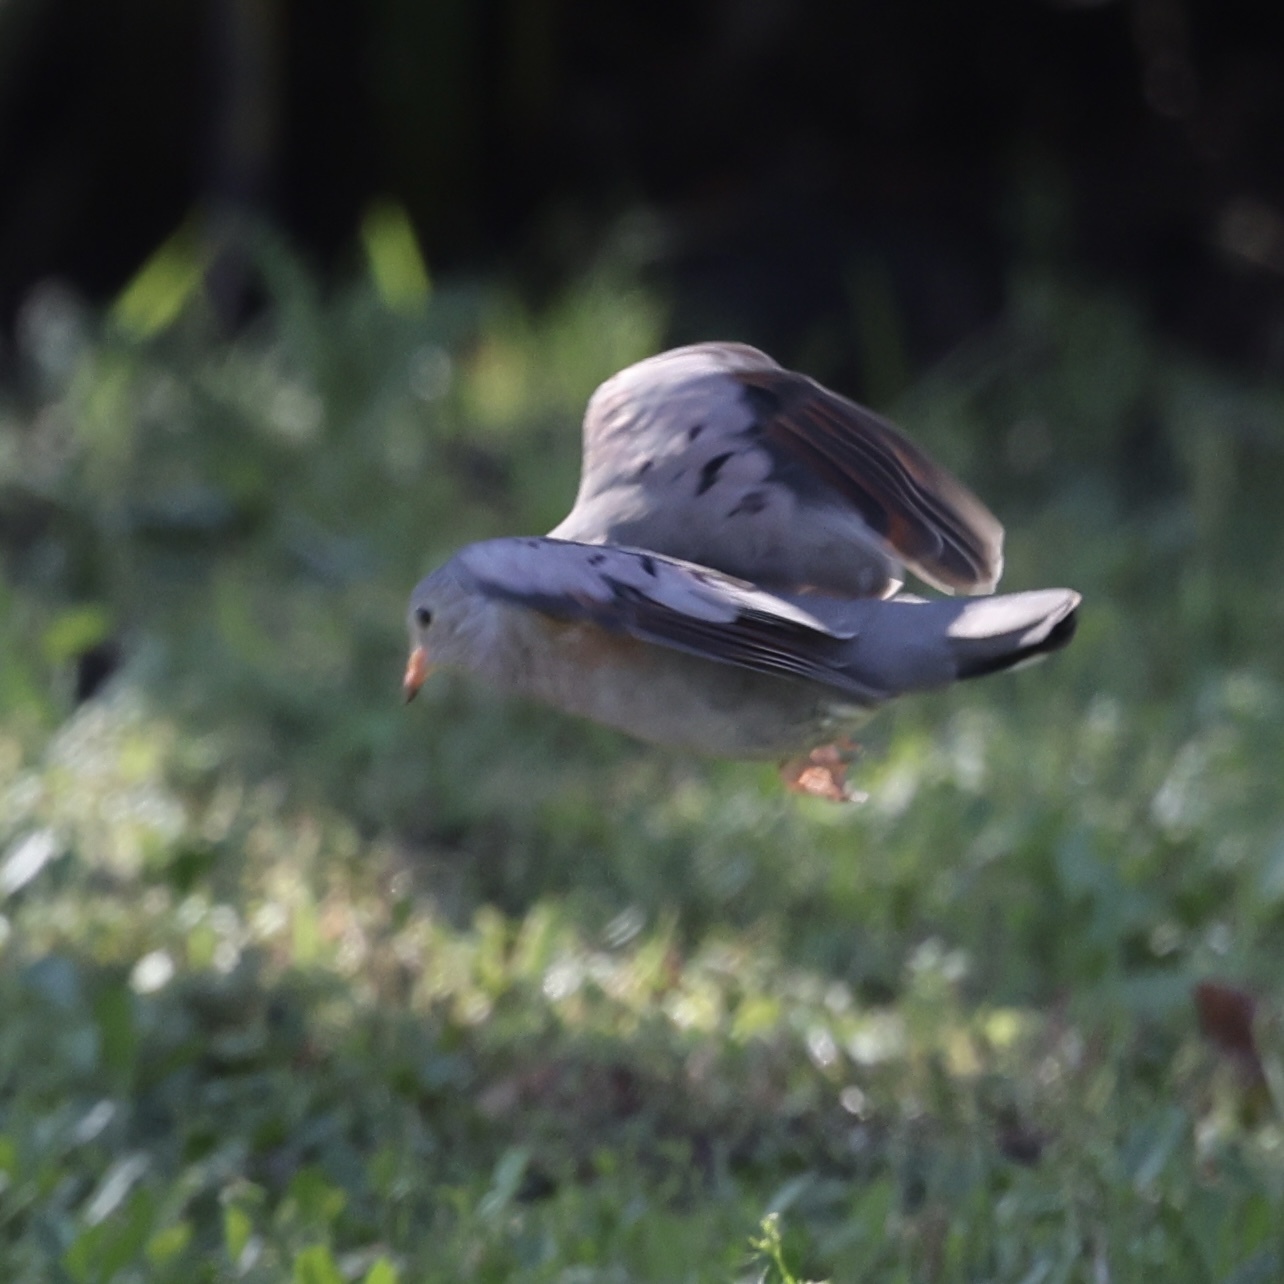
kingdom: Animalia
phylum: Chordata
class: Aves
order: Columbiformes
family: Columbidae
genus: Columbina
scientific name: Columbina passerina
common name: Common ground-dove
